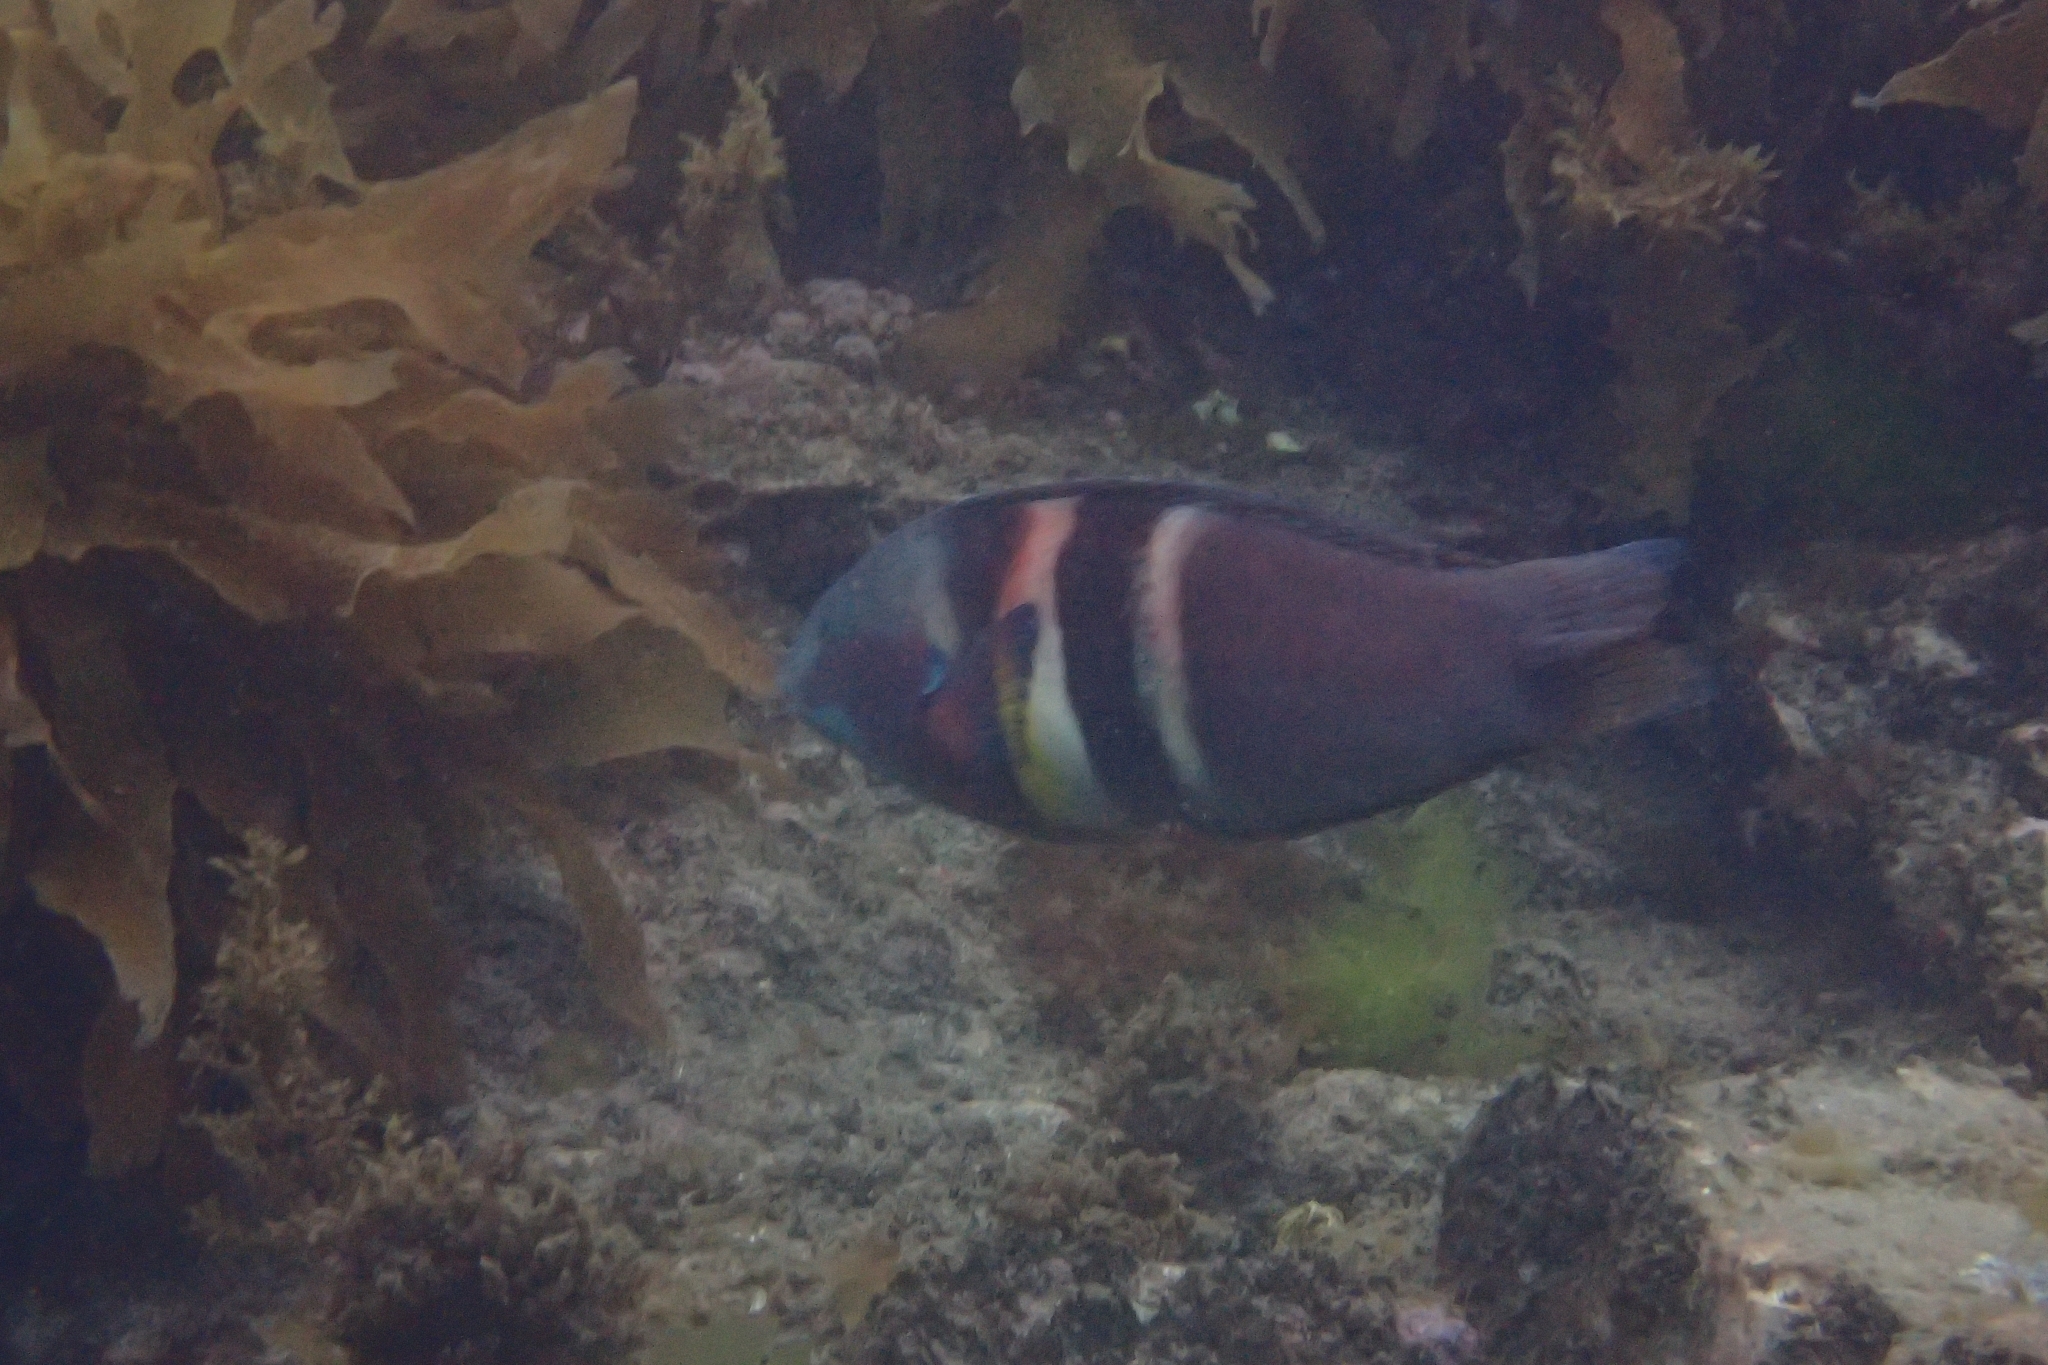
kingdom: Animalia
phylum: Chordata
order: Perciformes
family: Labridae
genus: Coris
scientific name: Coris sandeyeri
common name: Sandager's wrasse
